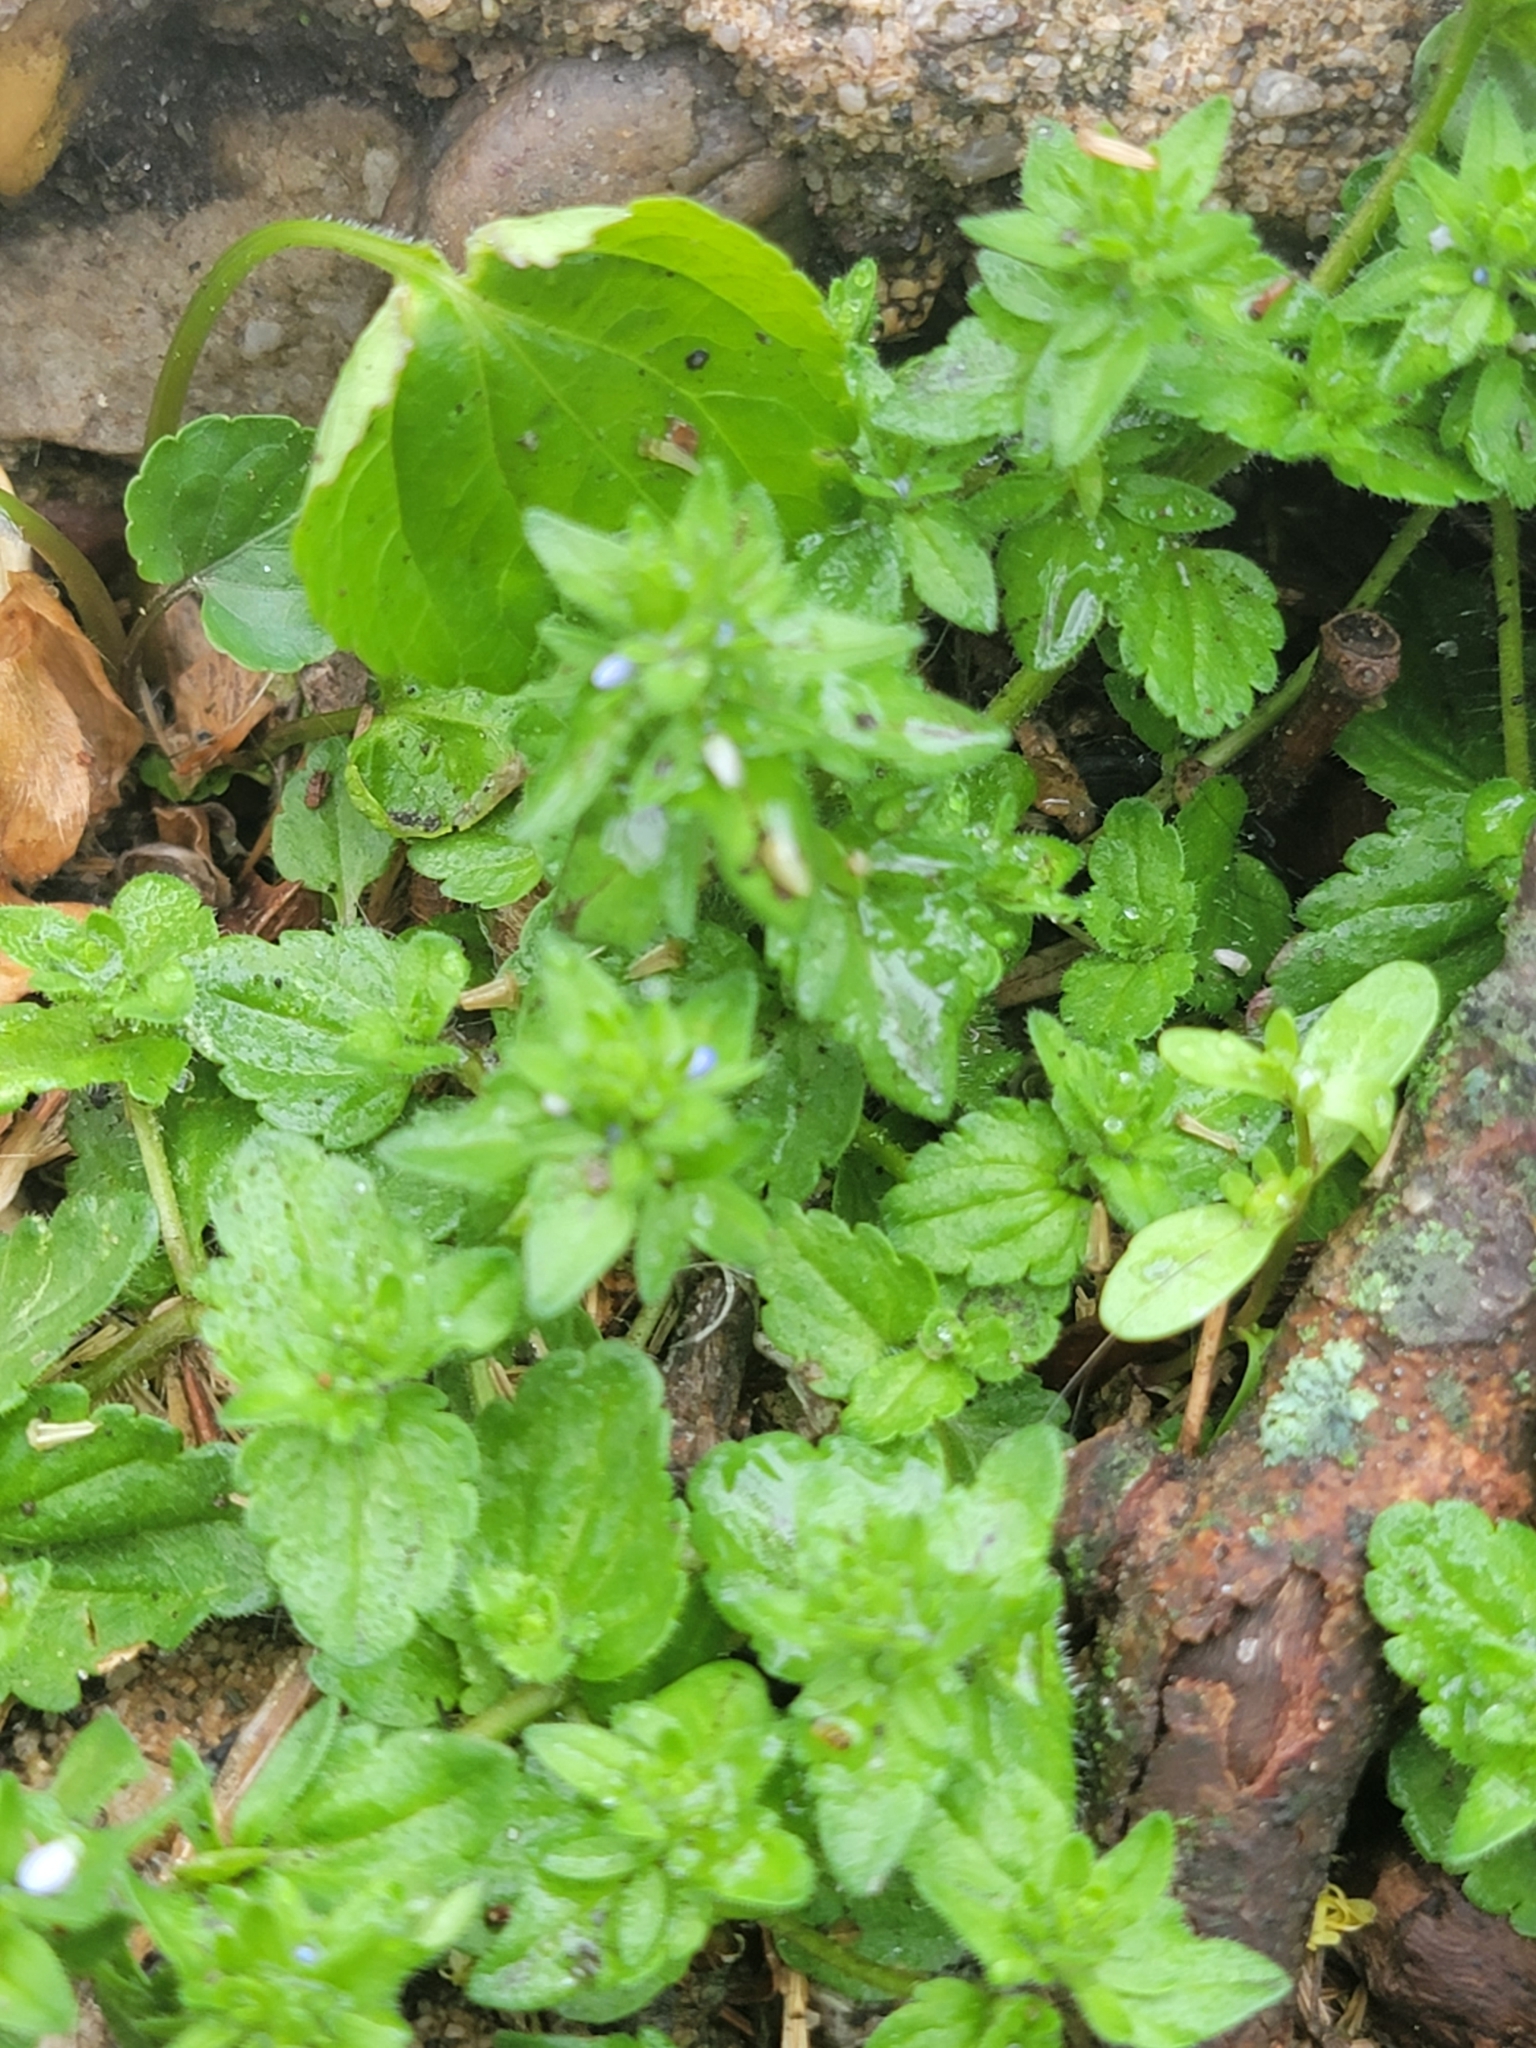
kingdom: Plantae
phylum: Tracheophyta
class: Magnoliopsida
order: Lamiales
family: Plantaginaceae
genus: Veronica
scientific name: Veronica arvensis
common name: Corn speedwell
